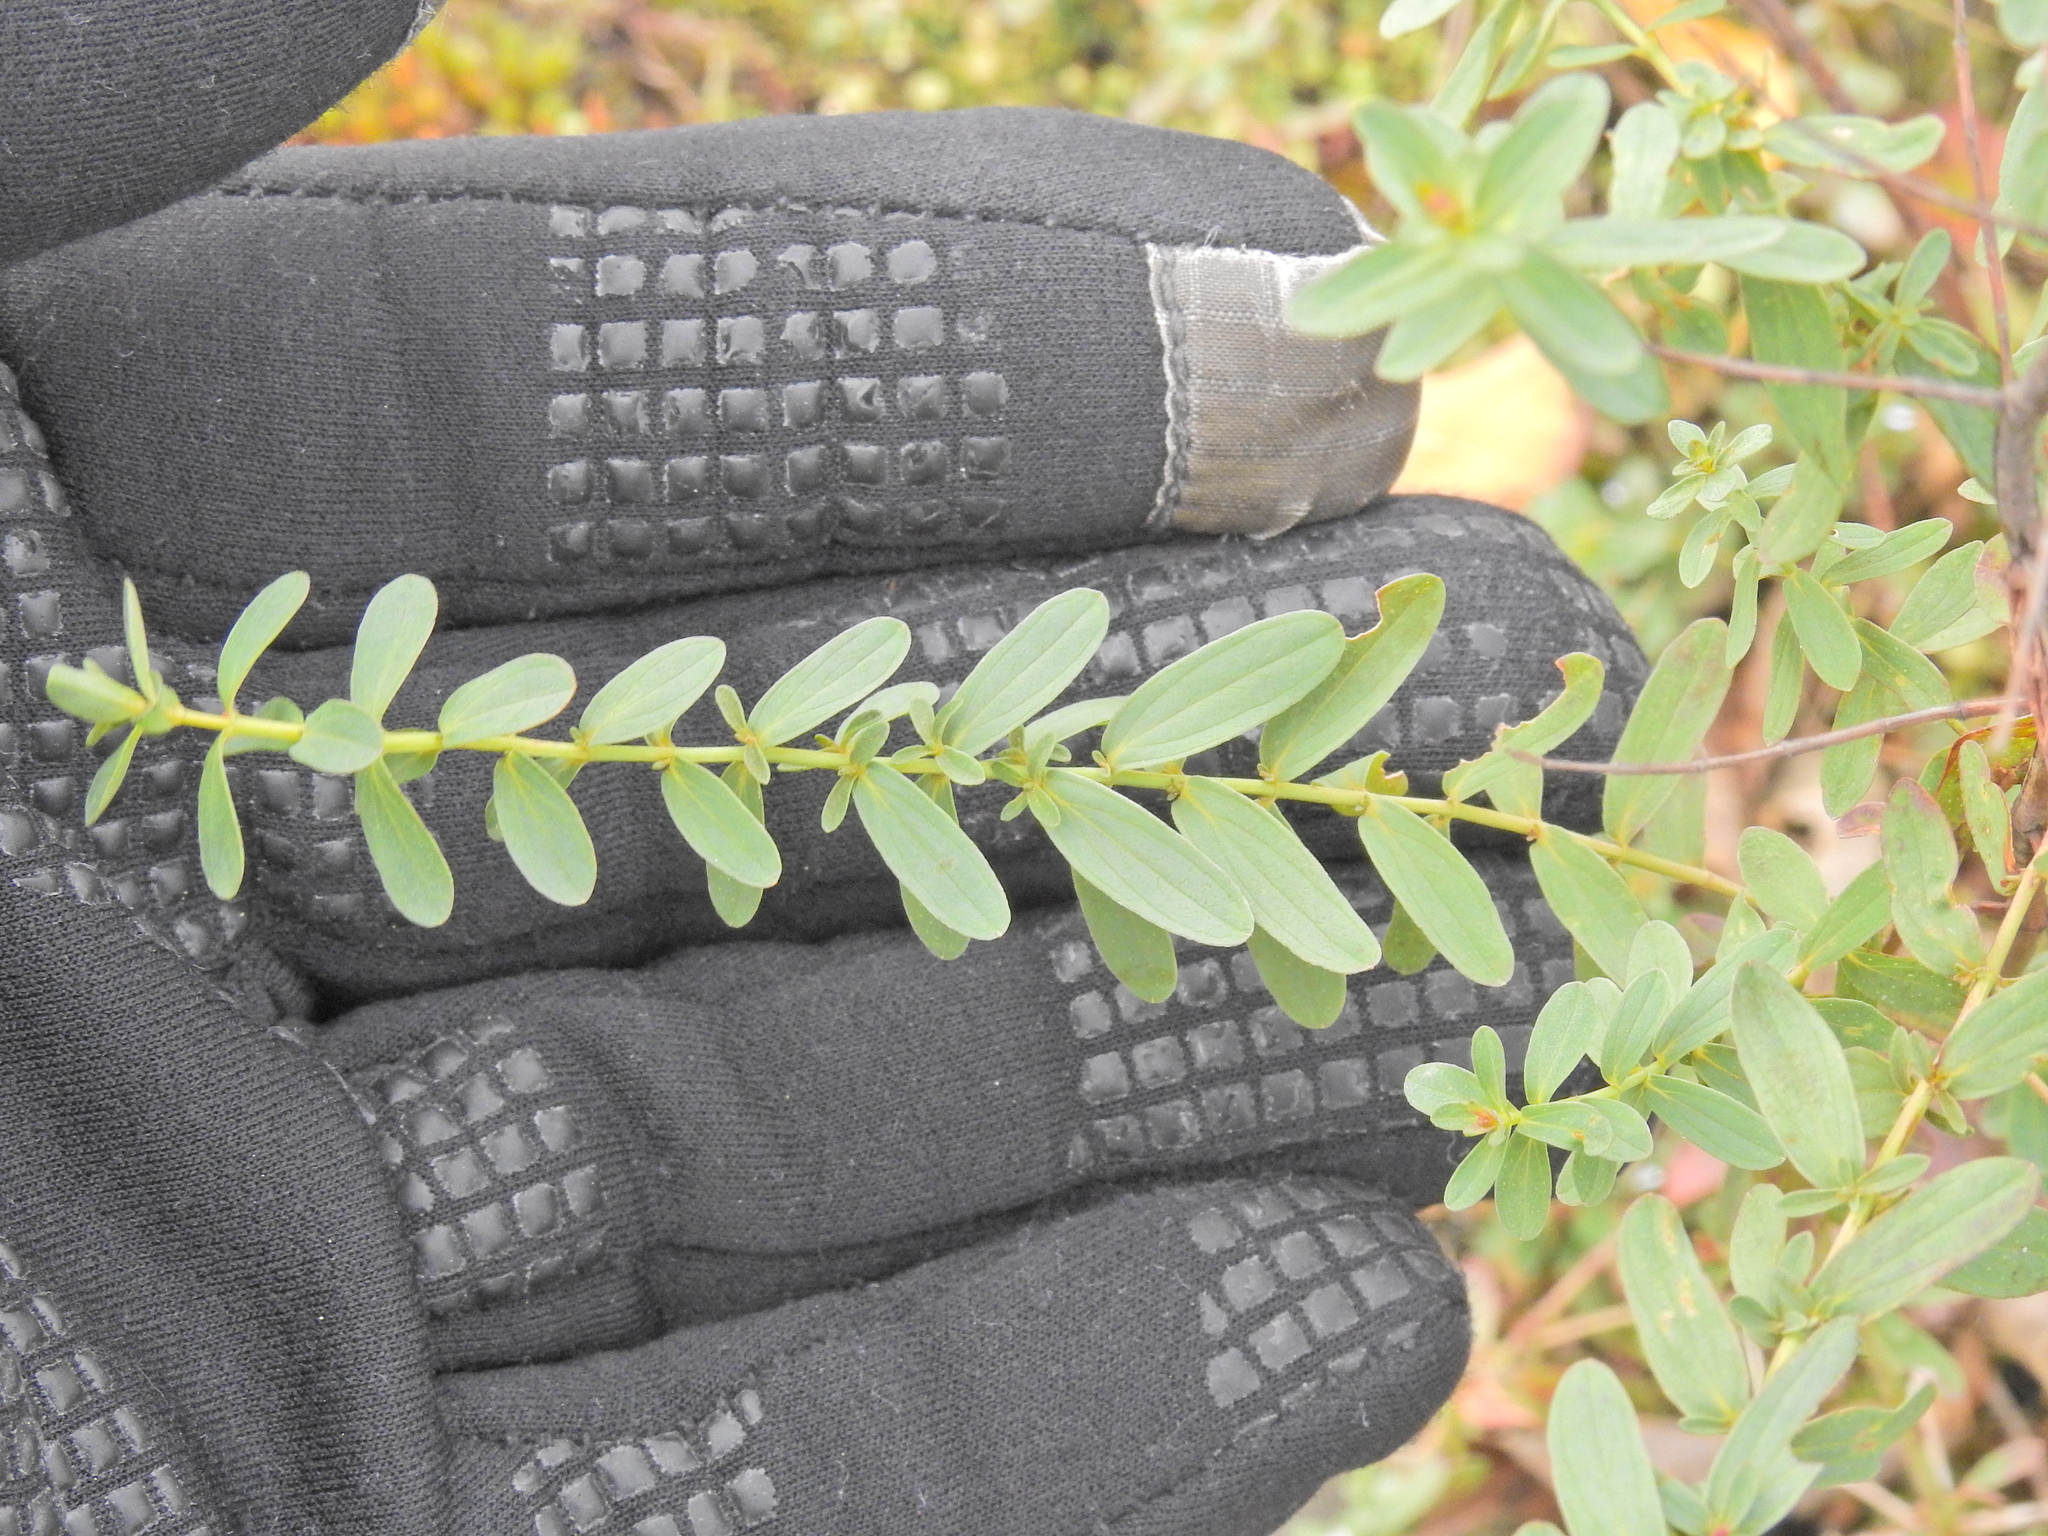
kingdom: Plantae
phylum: Tracheophyta
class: Magnoliopsida
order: Malpighiales
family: Hypericaceae
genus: Hypericum
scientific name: Hypericum perforatum
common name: Common st. johnswort
